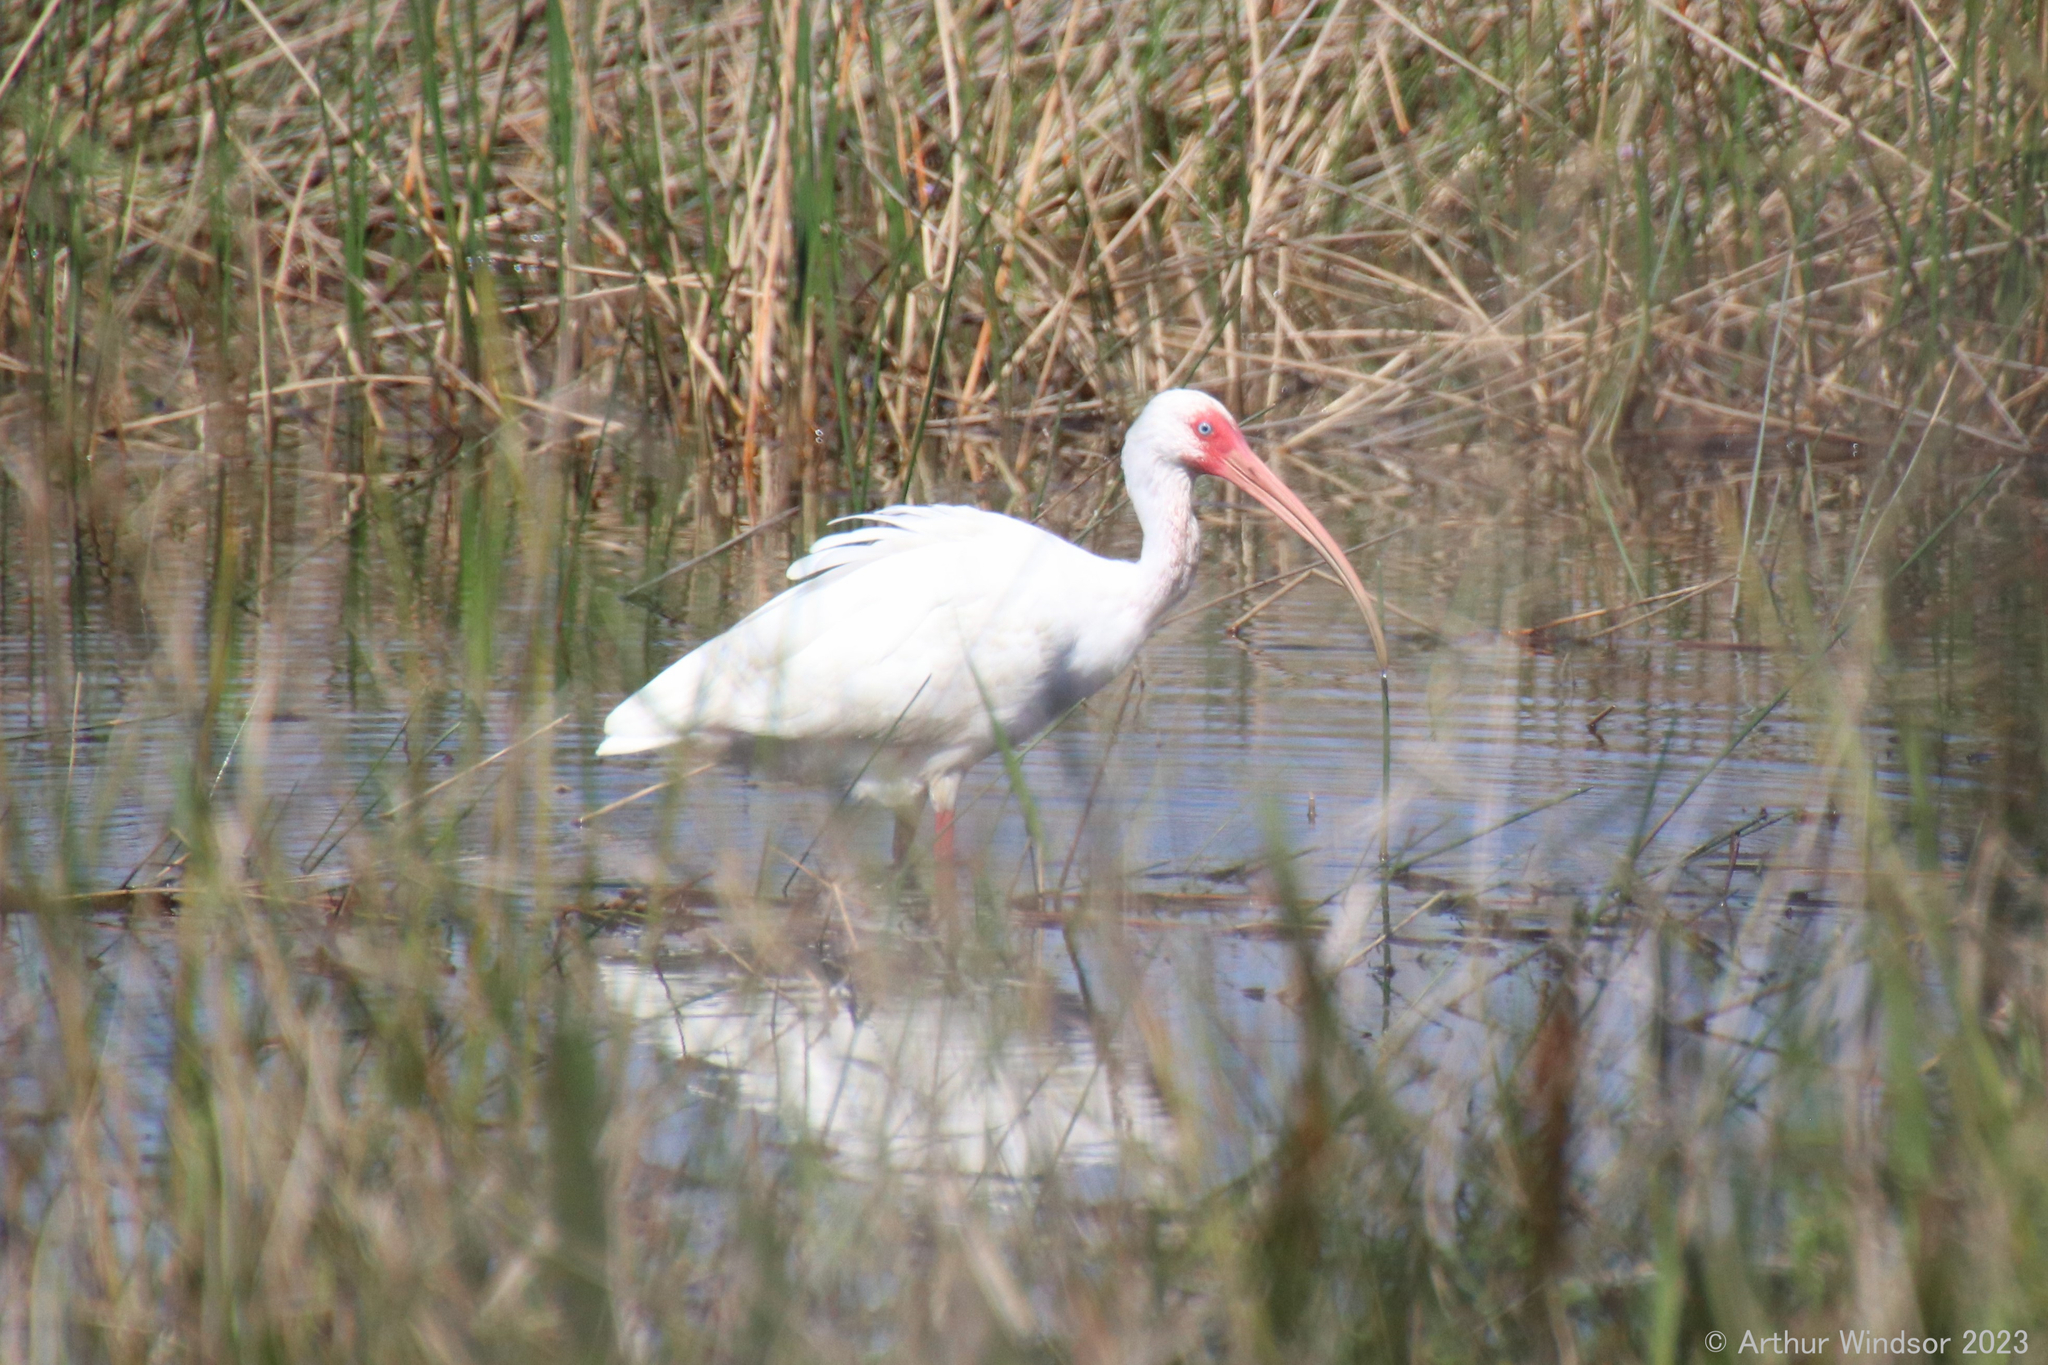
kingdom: Animalia
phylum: Chordata
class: Aves
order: Pelecaniformes
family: Threskiornithidae
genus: Eudocimus
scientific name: Eudocimus albus
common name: White ibis
